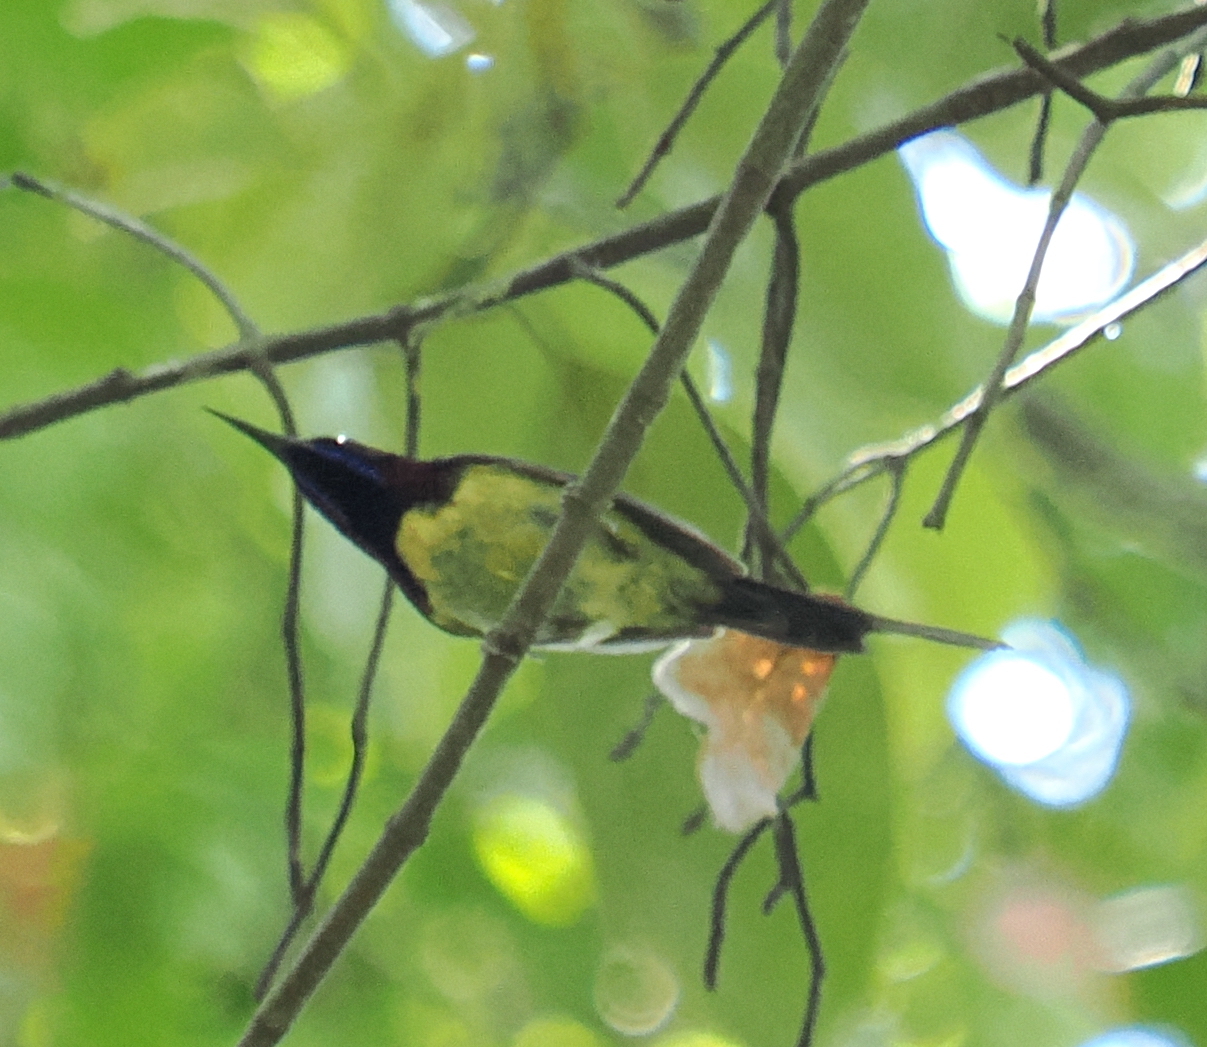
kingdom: Animalia
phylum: Chordata
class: Aves
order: Passeriformes
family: Nectariniidae
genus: Aethopyga
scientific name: Aethopyga saturata
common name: Black-throated sunbird
